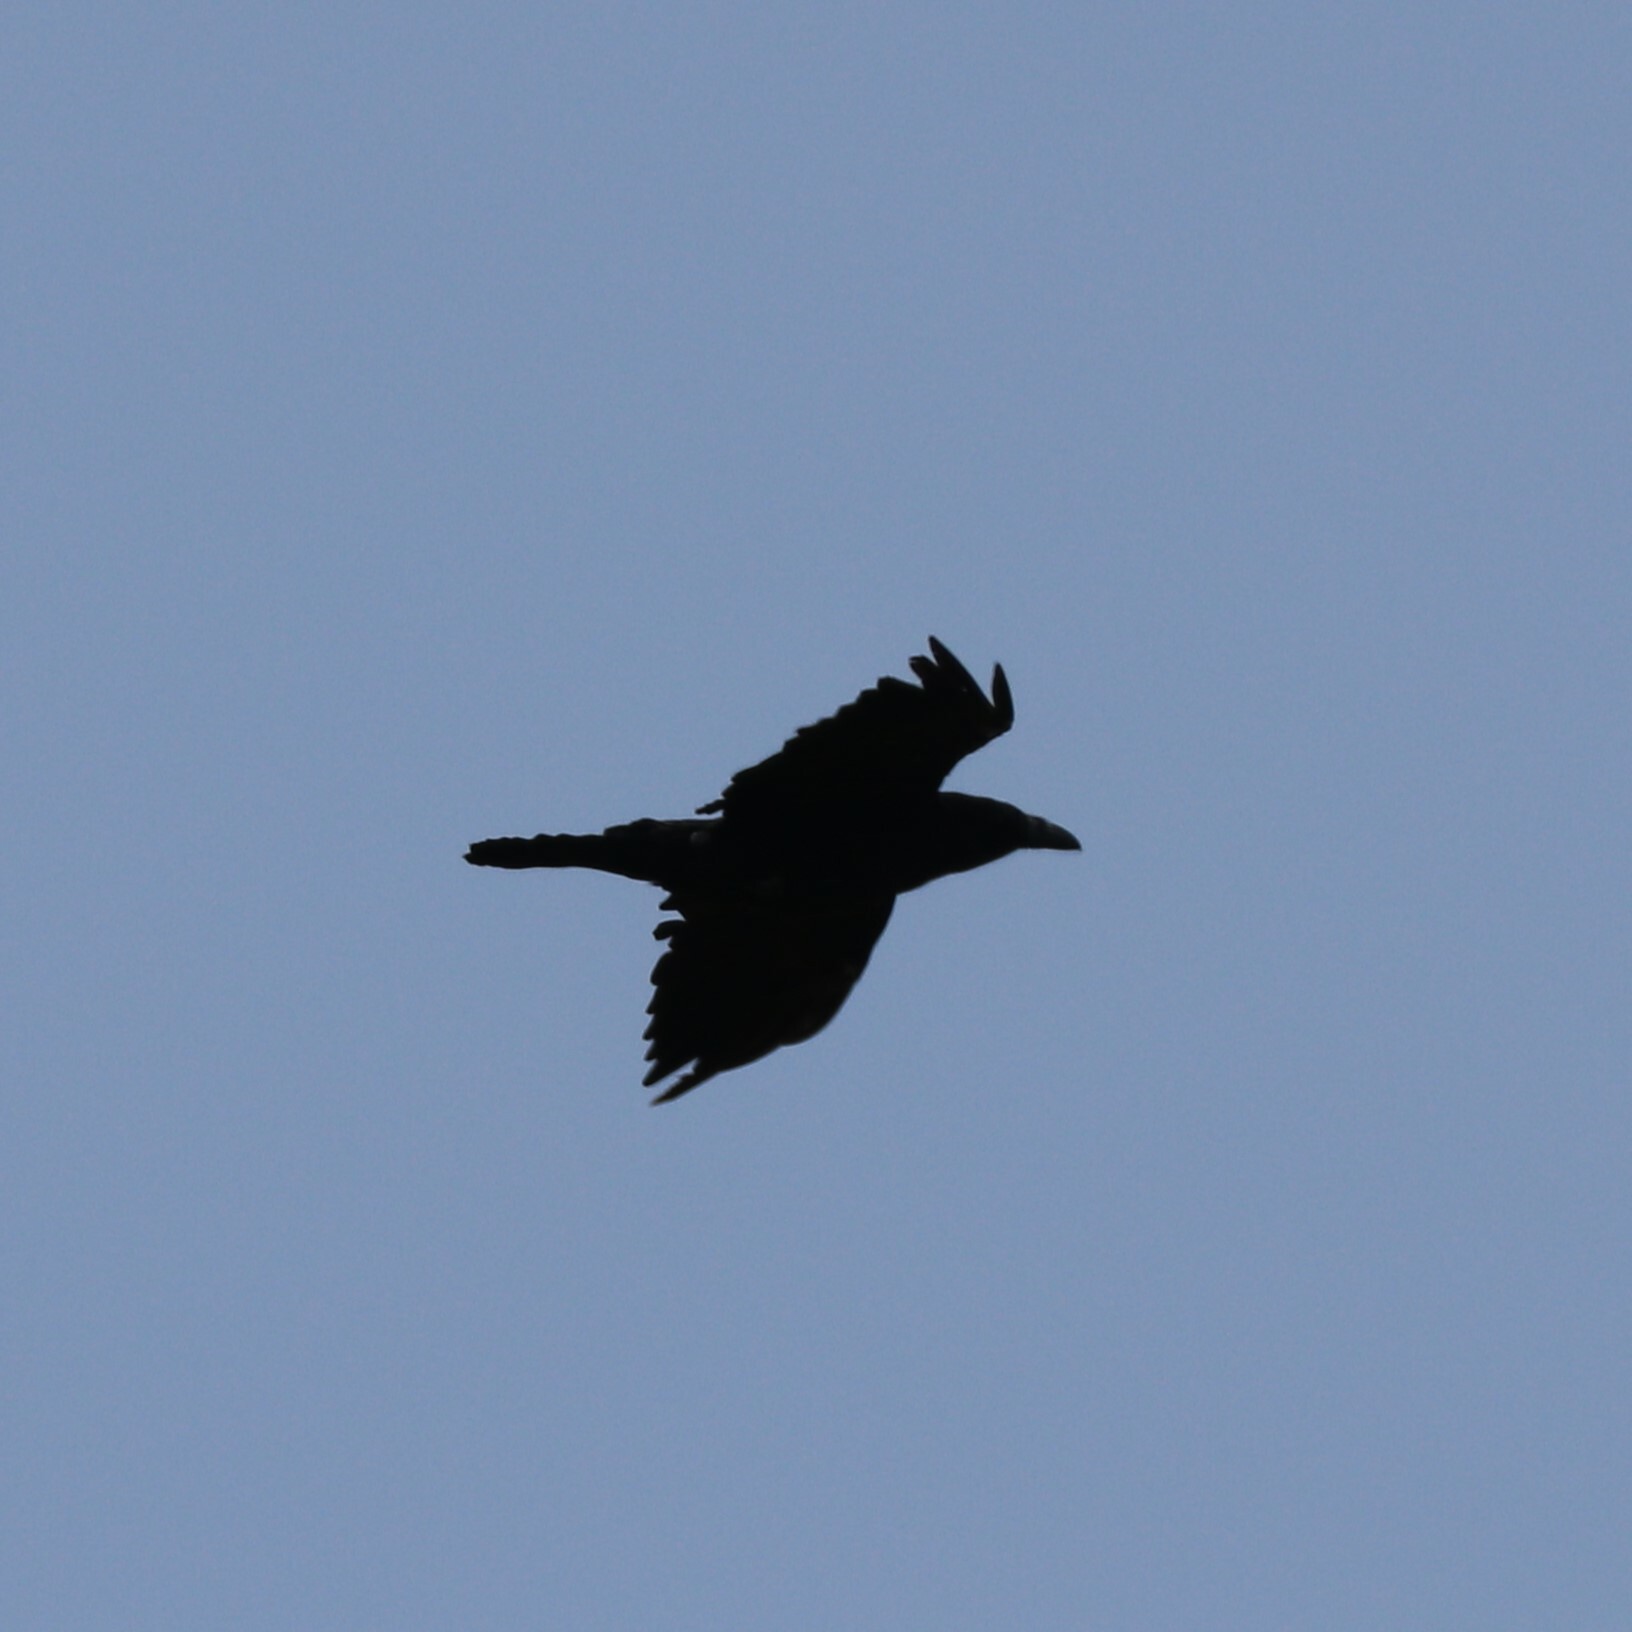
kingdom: Animalia
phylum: Chordata
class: Aves
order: Passeriformes
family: Corvidae
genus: Corvus
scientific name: Corvus corax
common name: Common raven
